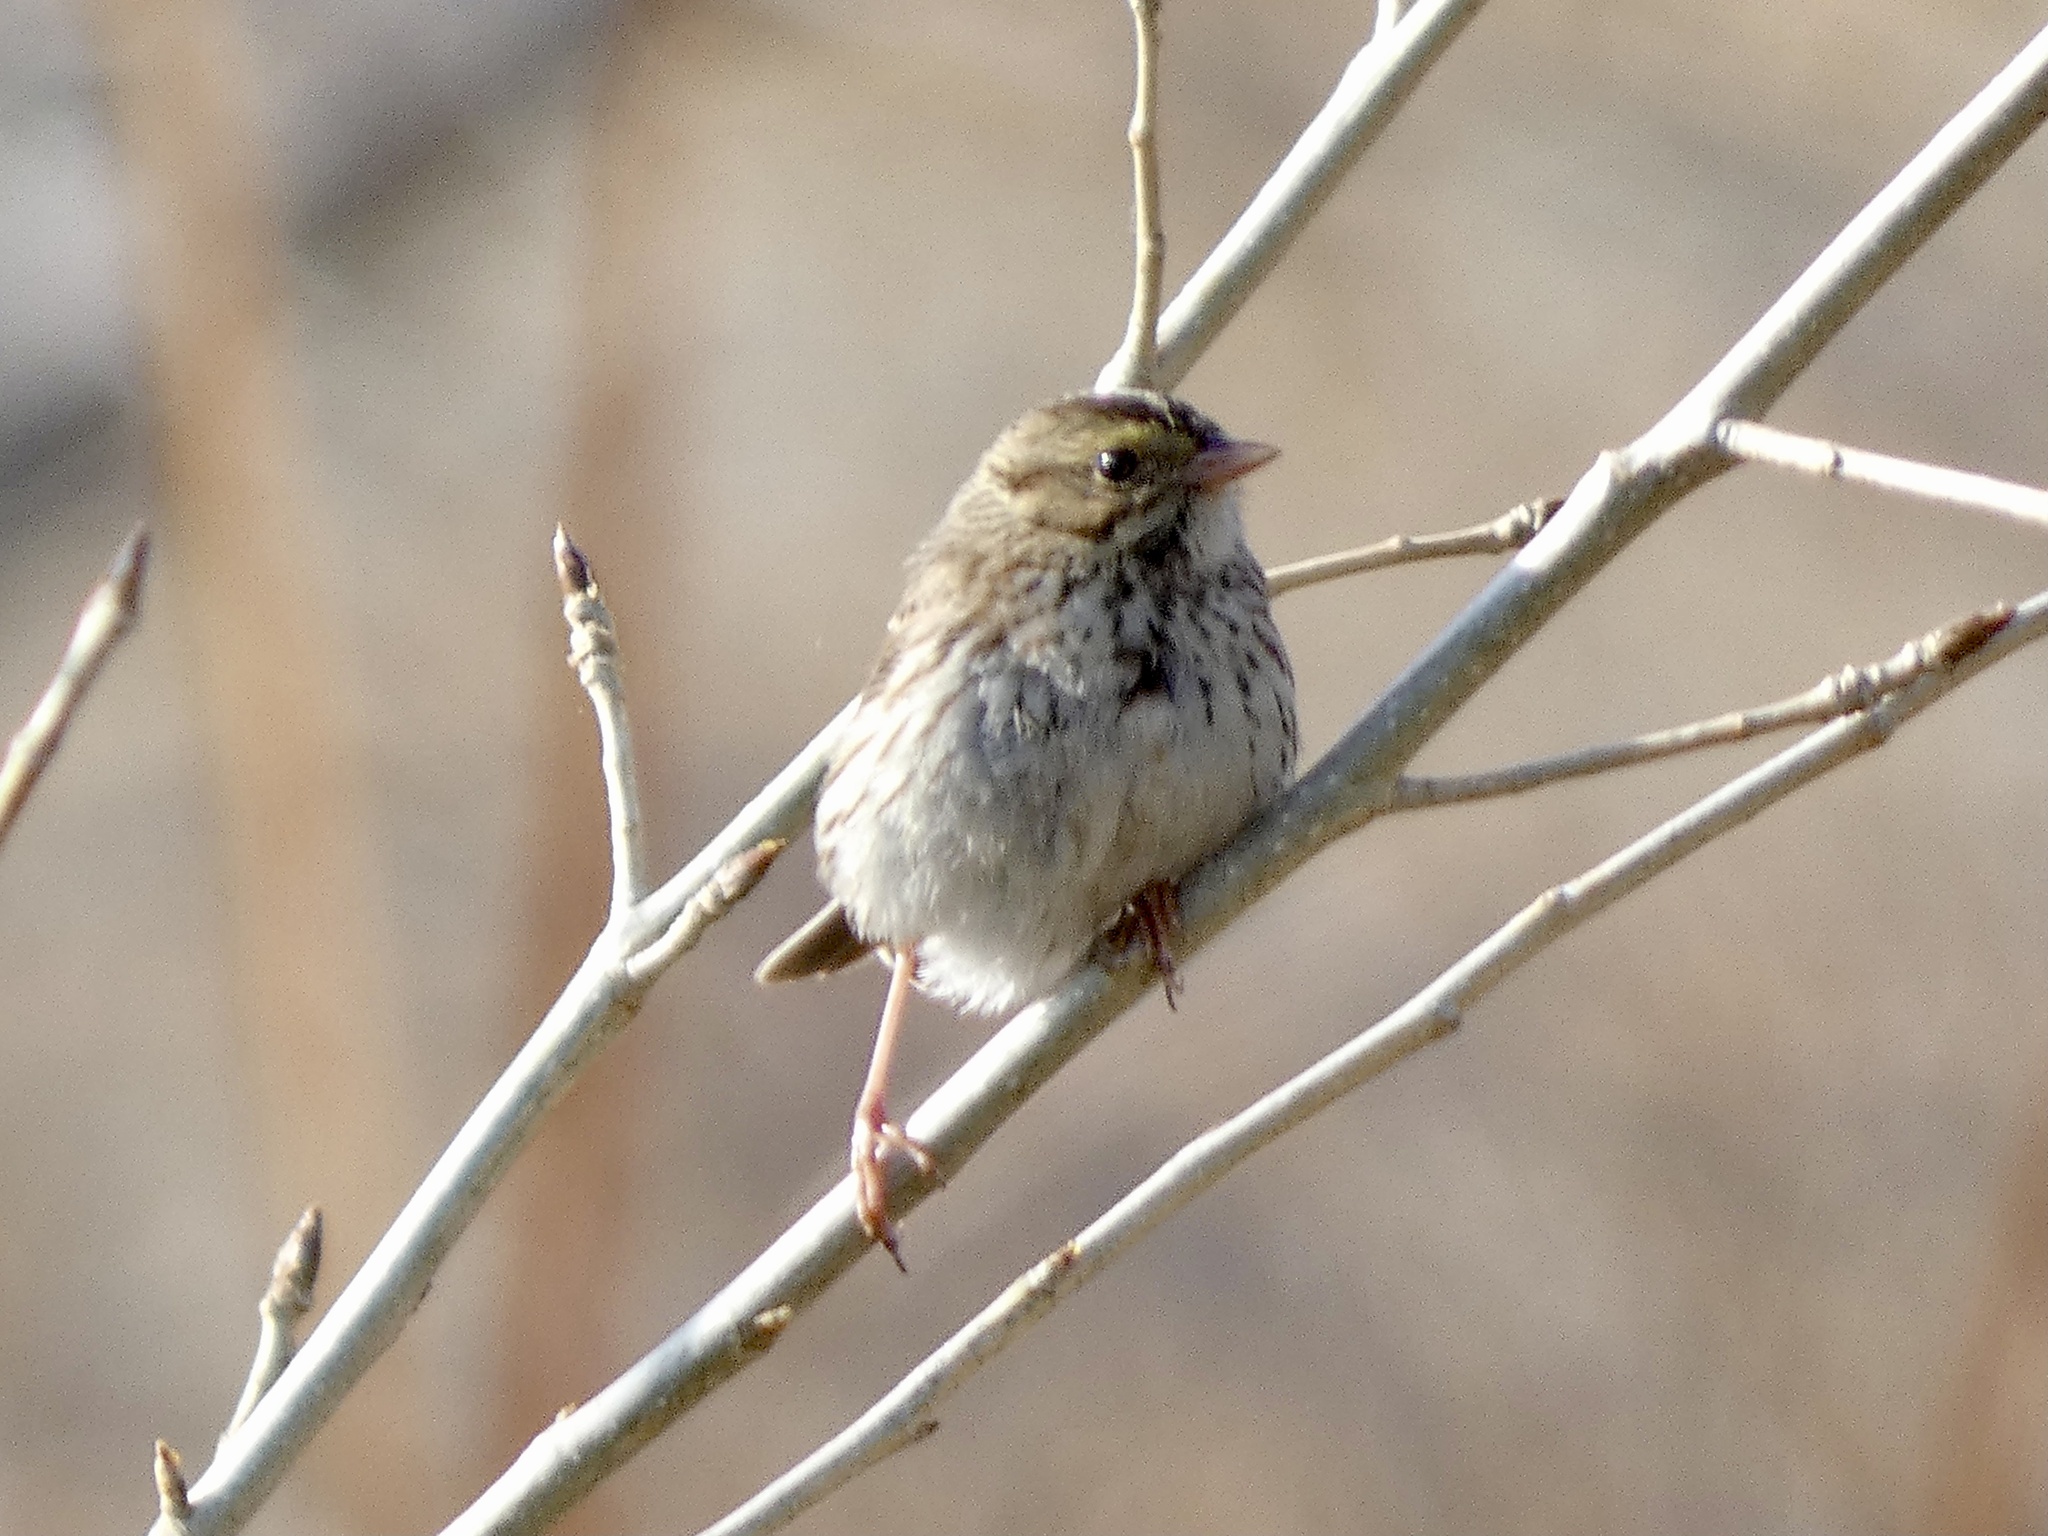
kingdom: Animalia
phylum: Chordata
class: Aves
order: Passeriformes
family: Passerellidae
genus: Passerculus
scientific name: Passerculus sandwichensis
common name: Savannah sparrow
